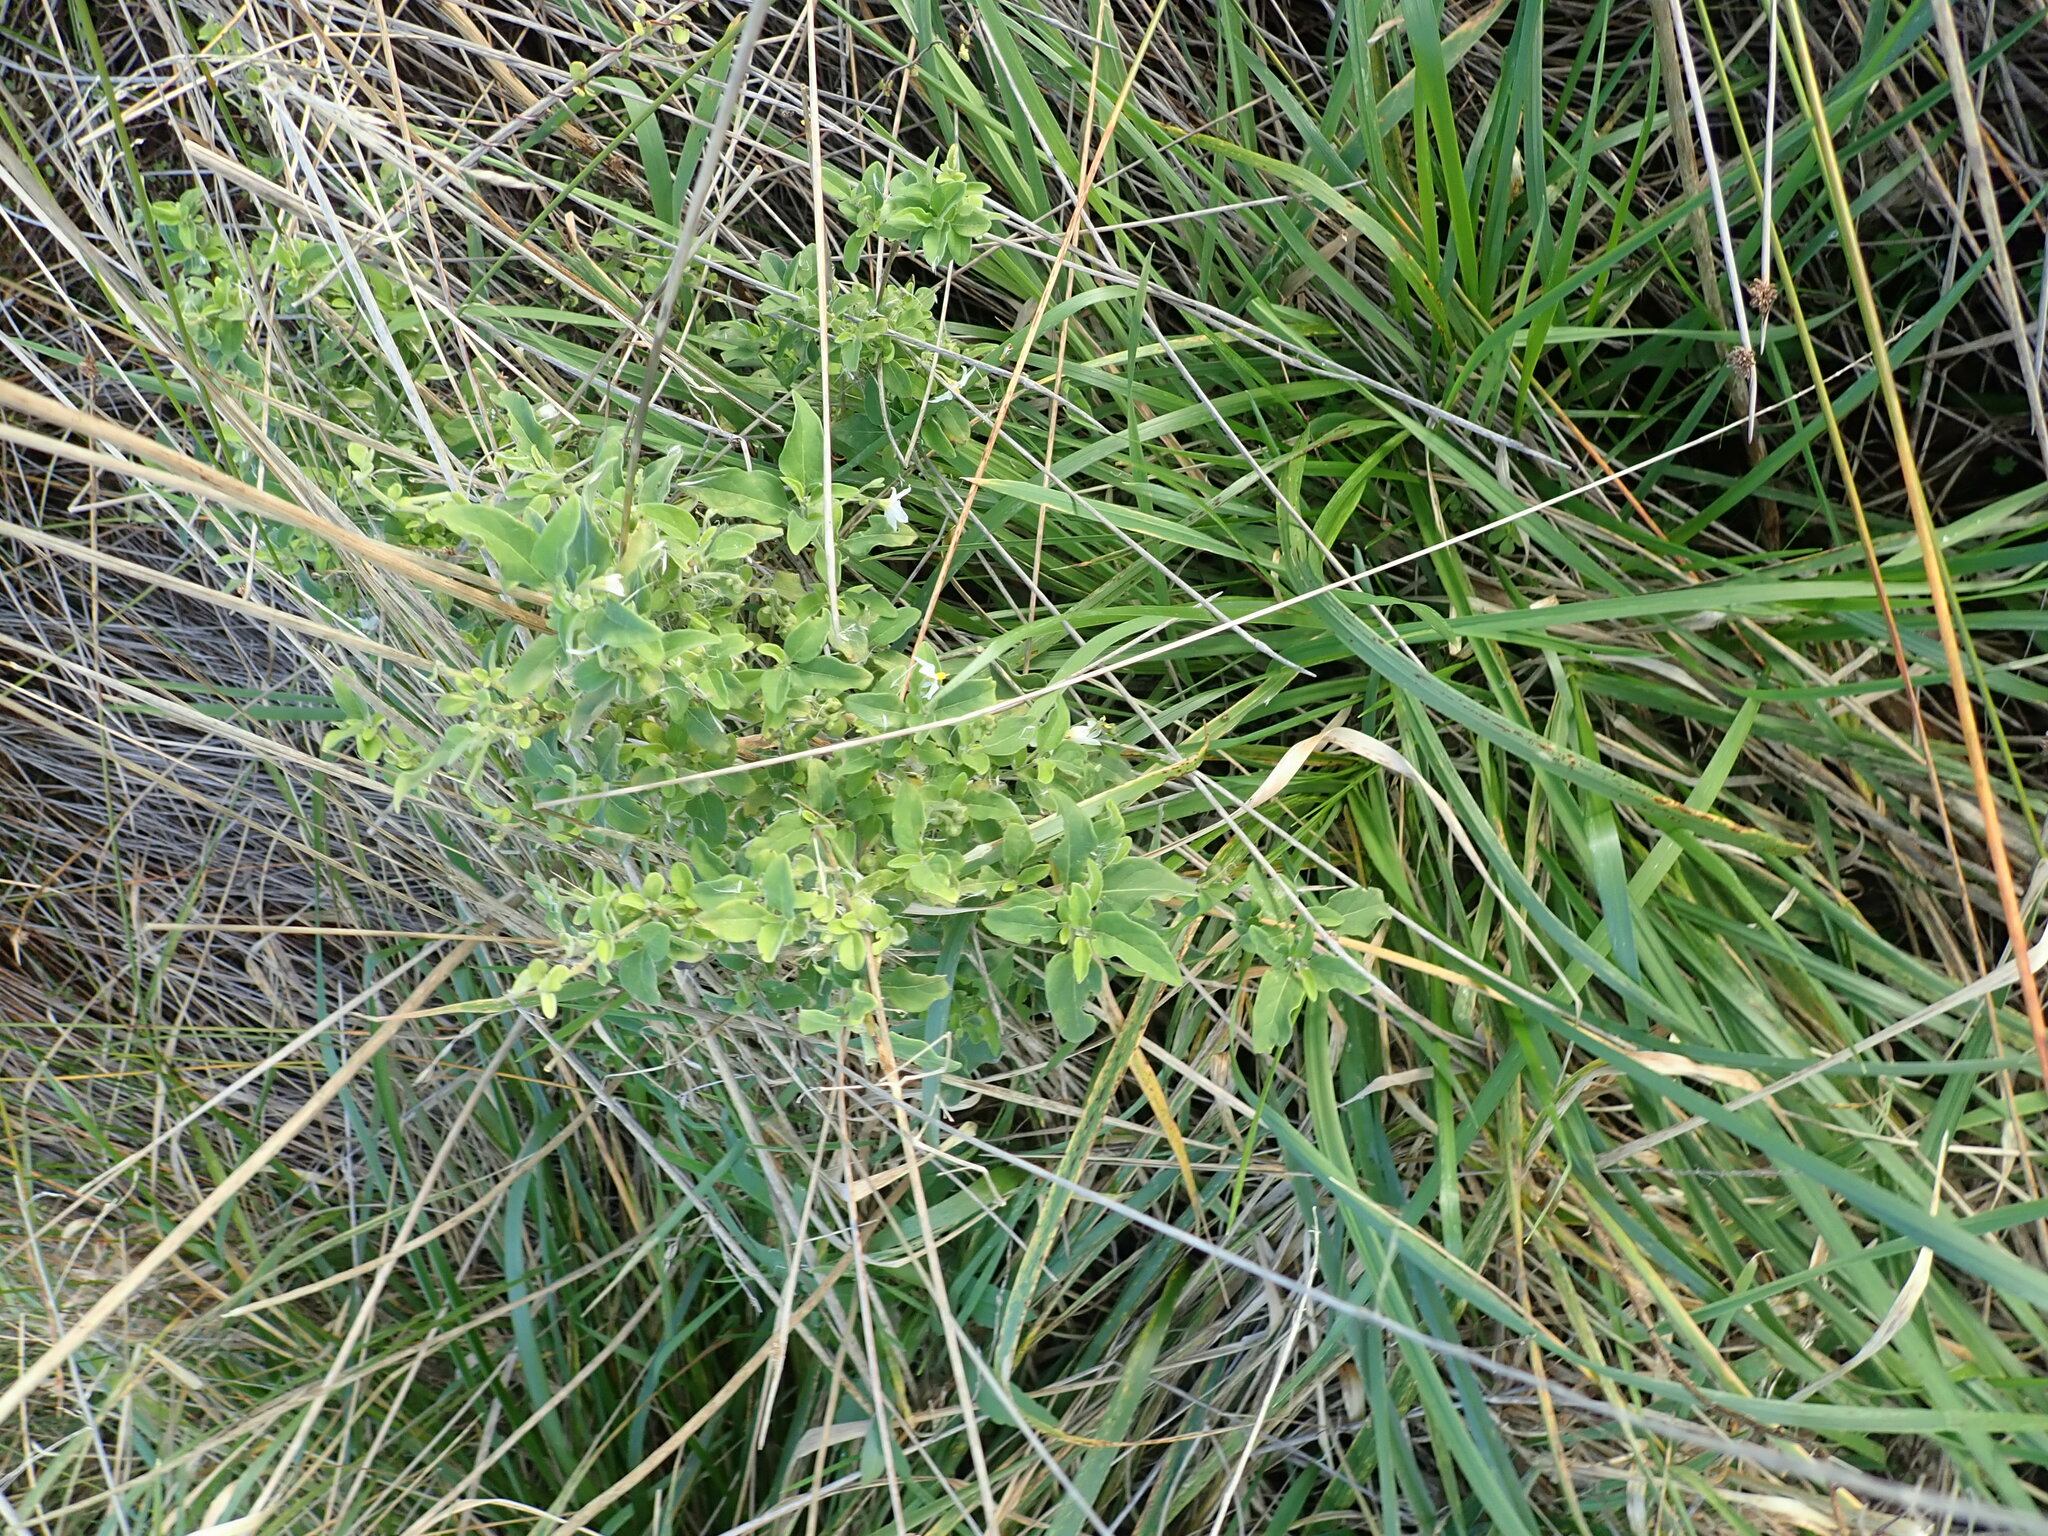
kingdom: Plantae
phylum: Tracheophyta
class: Magnoliopsida
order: Solanales
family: Solanaceae
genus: Solanum
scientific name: Solanum chenopodioides
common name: Tall nightshade
